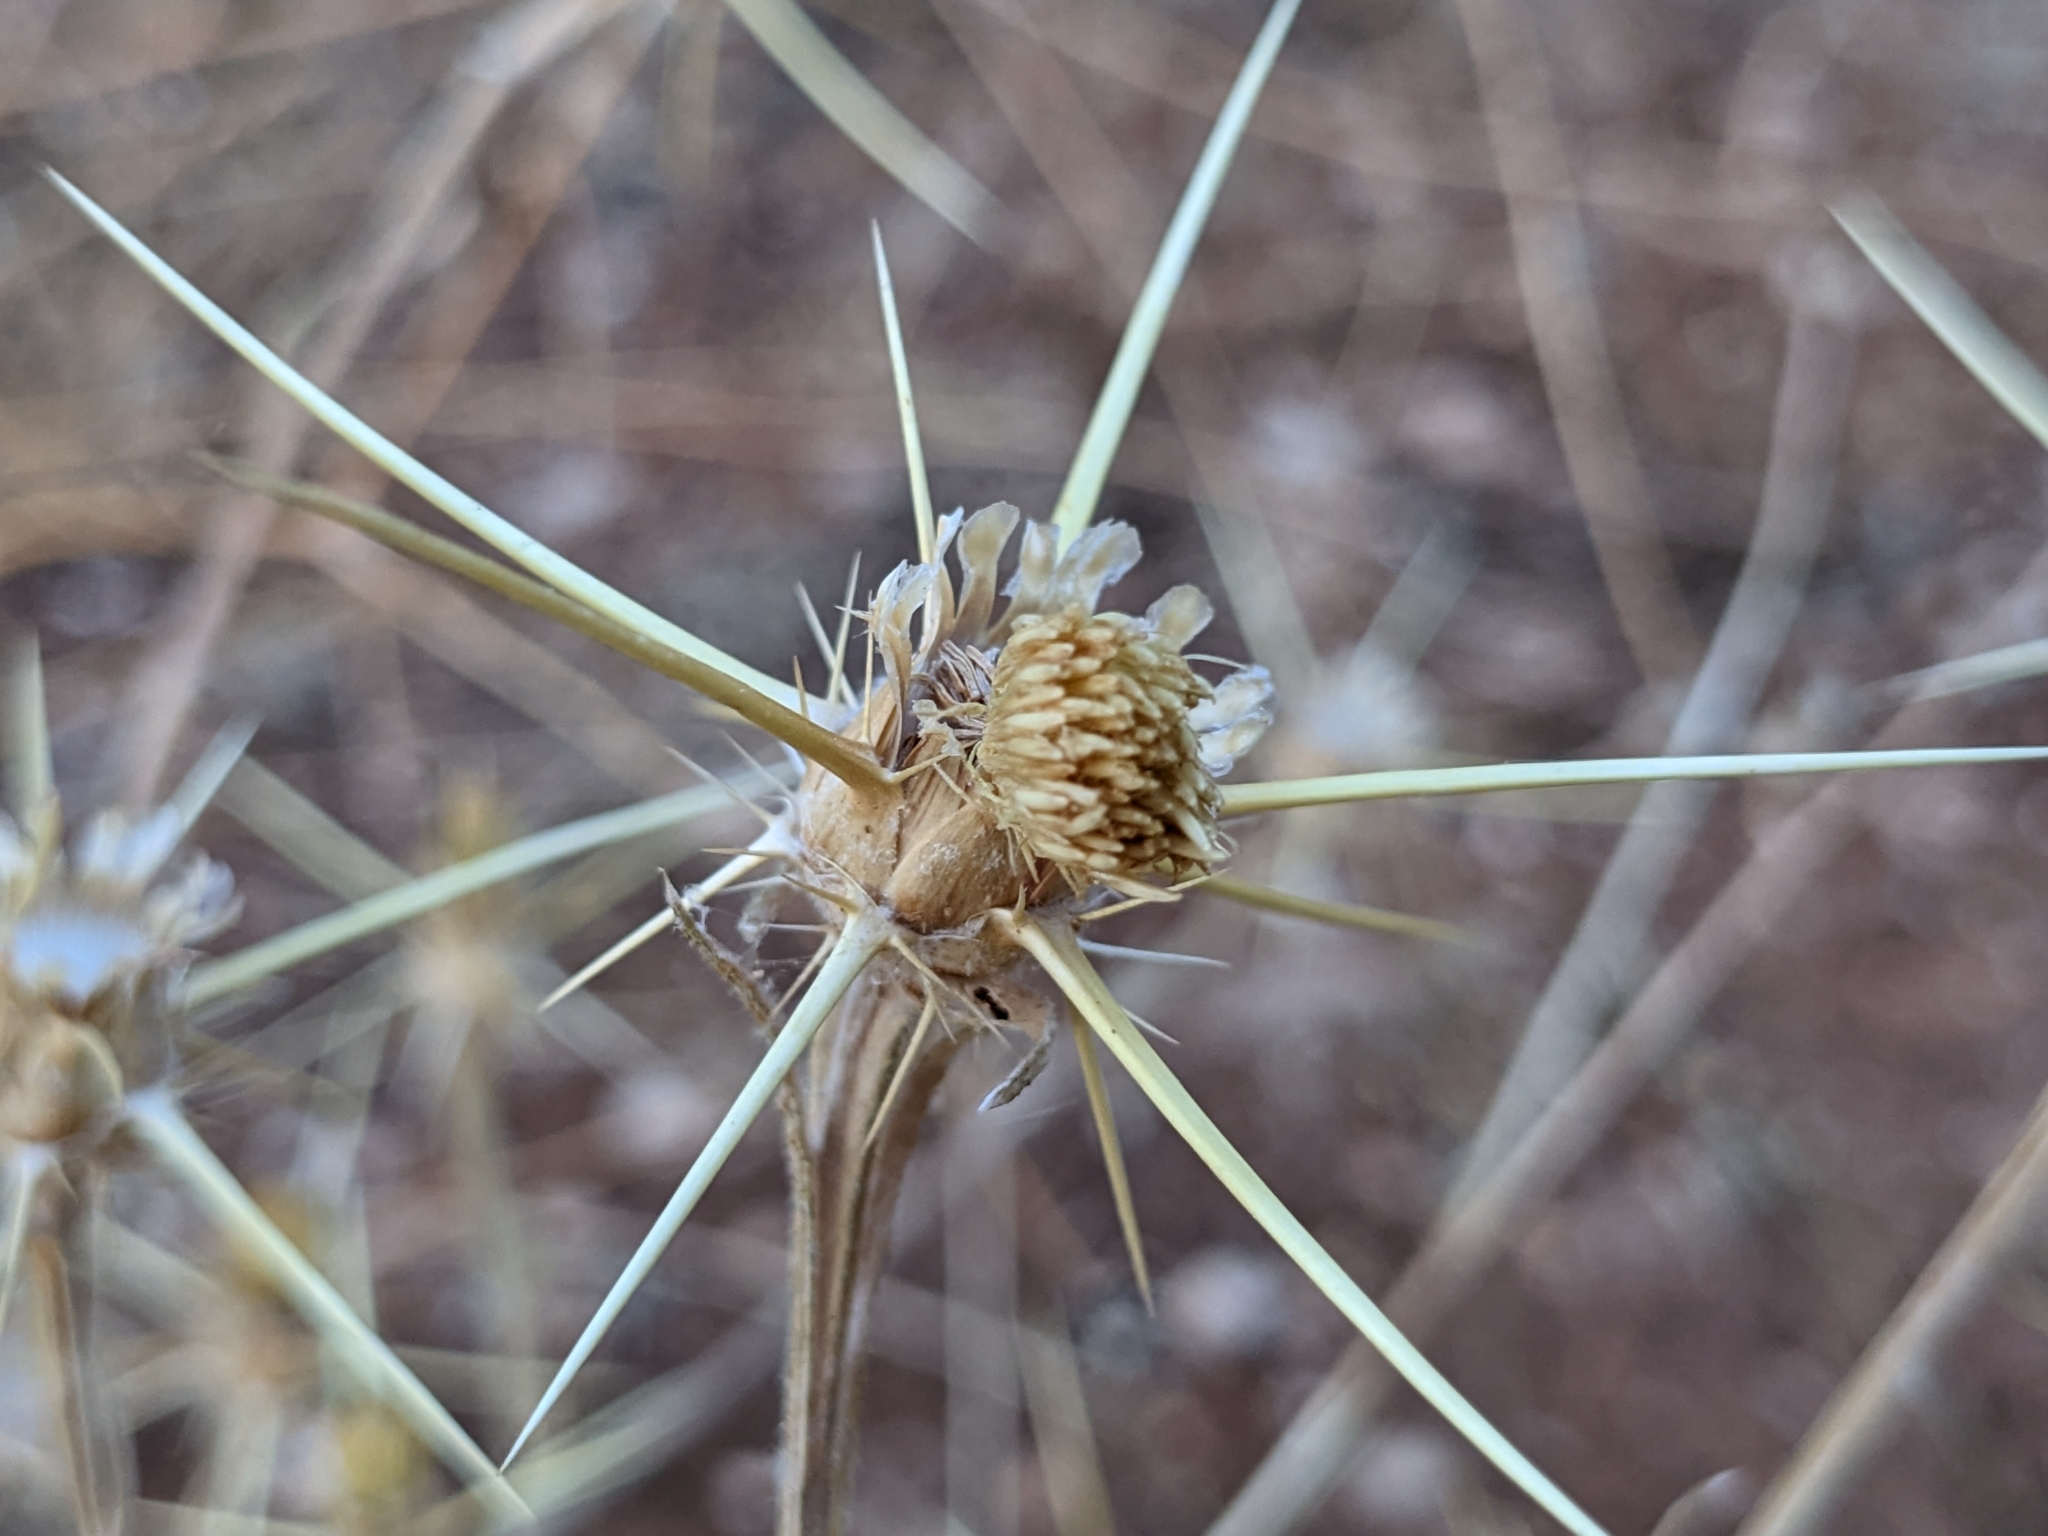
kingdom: Plantae
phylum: Tracheophyta
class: Magnoliopsida
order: Asterales
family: Asteraceae
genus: Centaurea
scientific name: Centaurea solstitialis
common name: Yellow star-thistle
